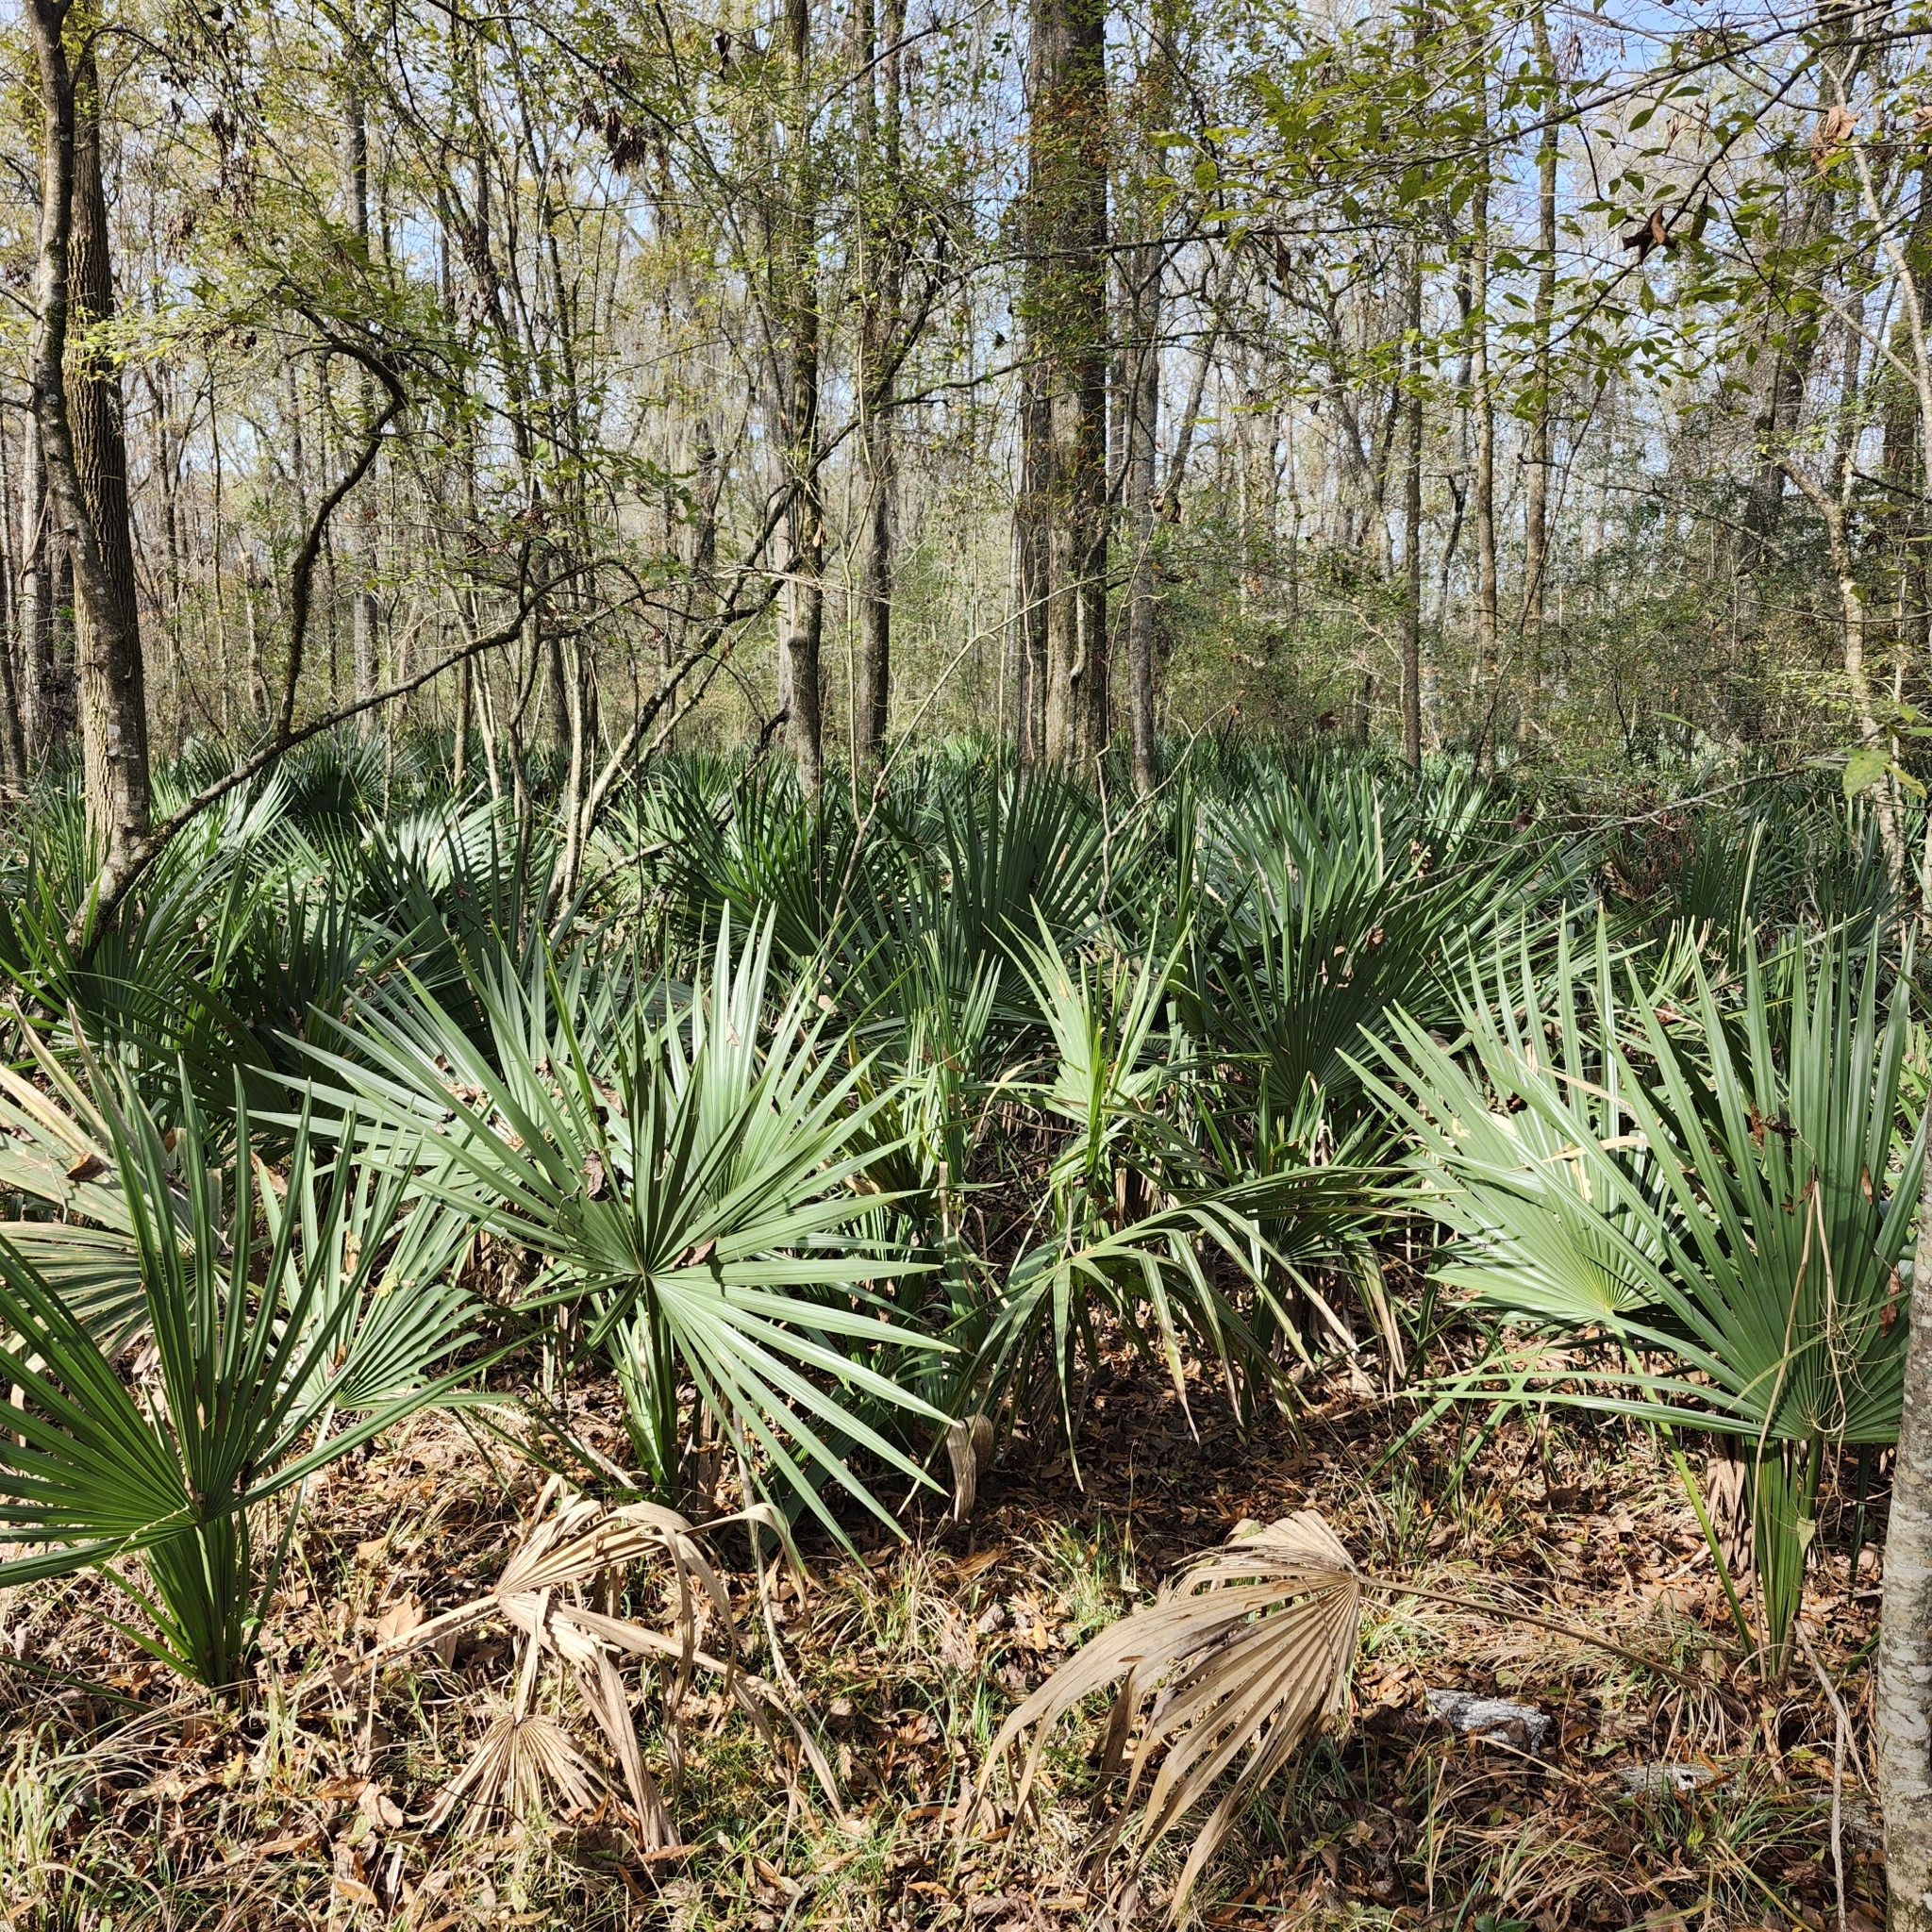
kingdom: Plantae
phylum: Tracheophyta
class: Liliopsida
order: Arecales
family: Arecaceae
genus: Sabal
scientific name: Sabal minor
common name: Dwarf palmetto
